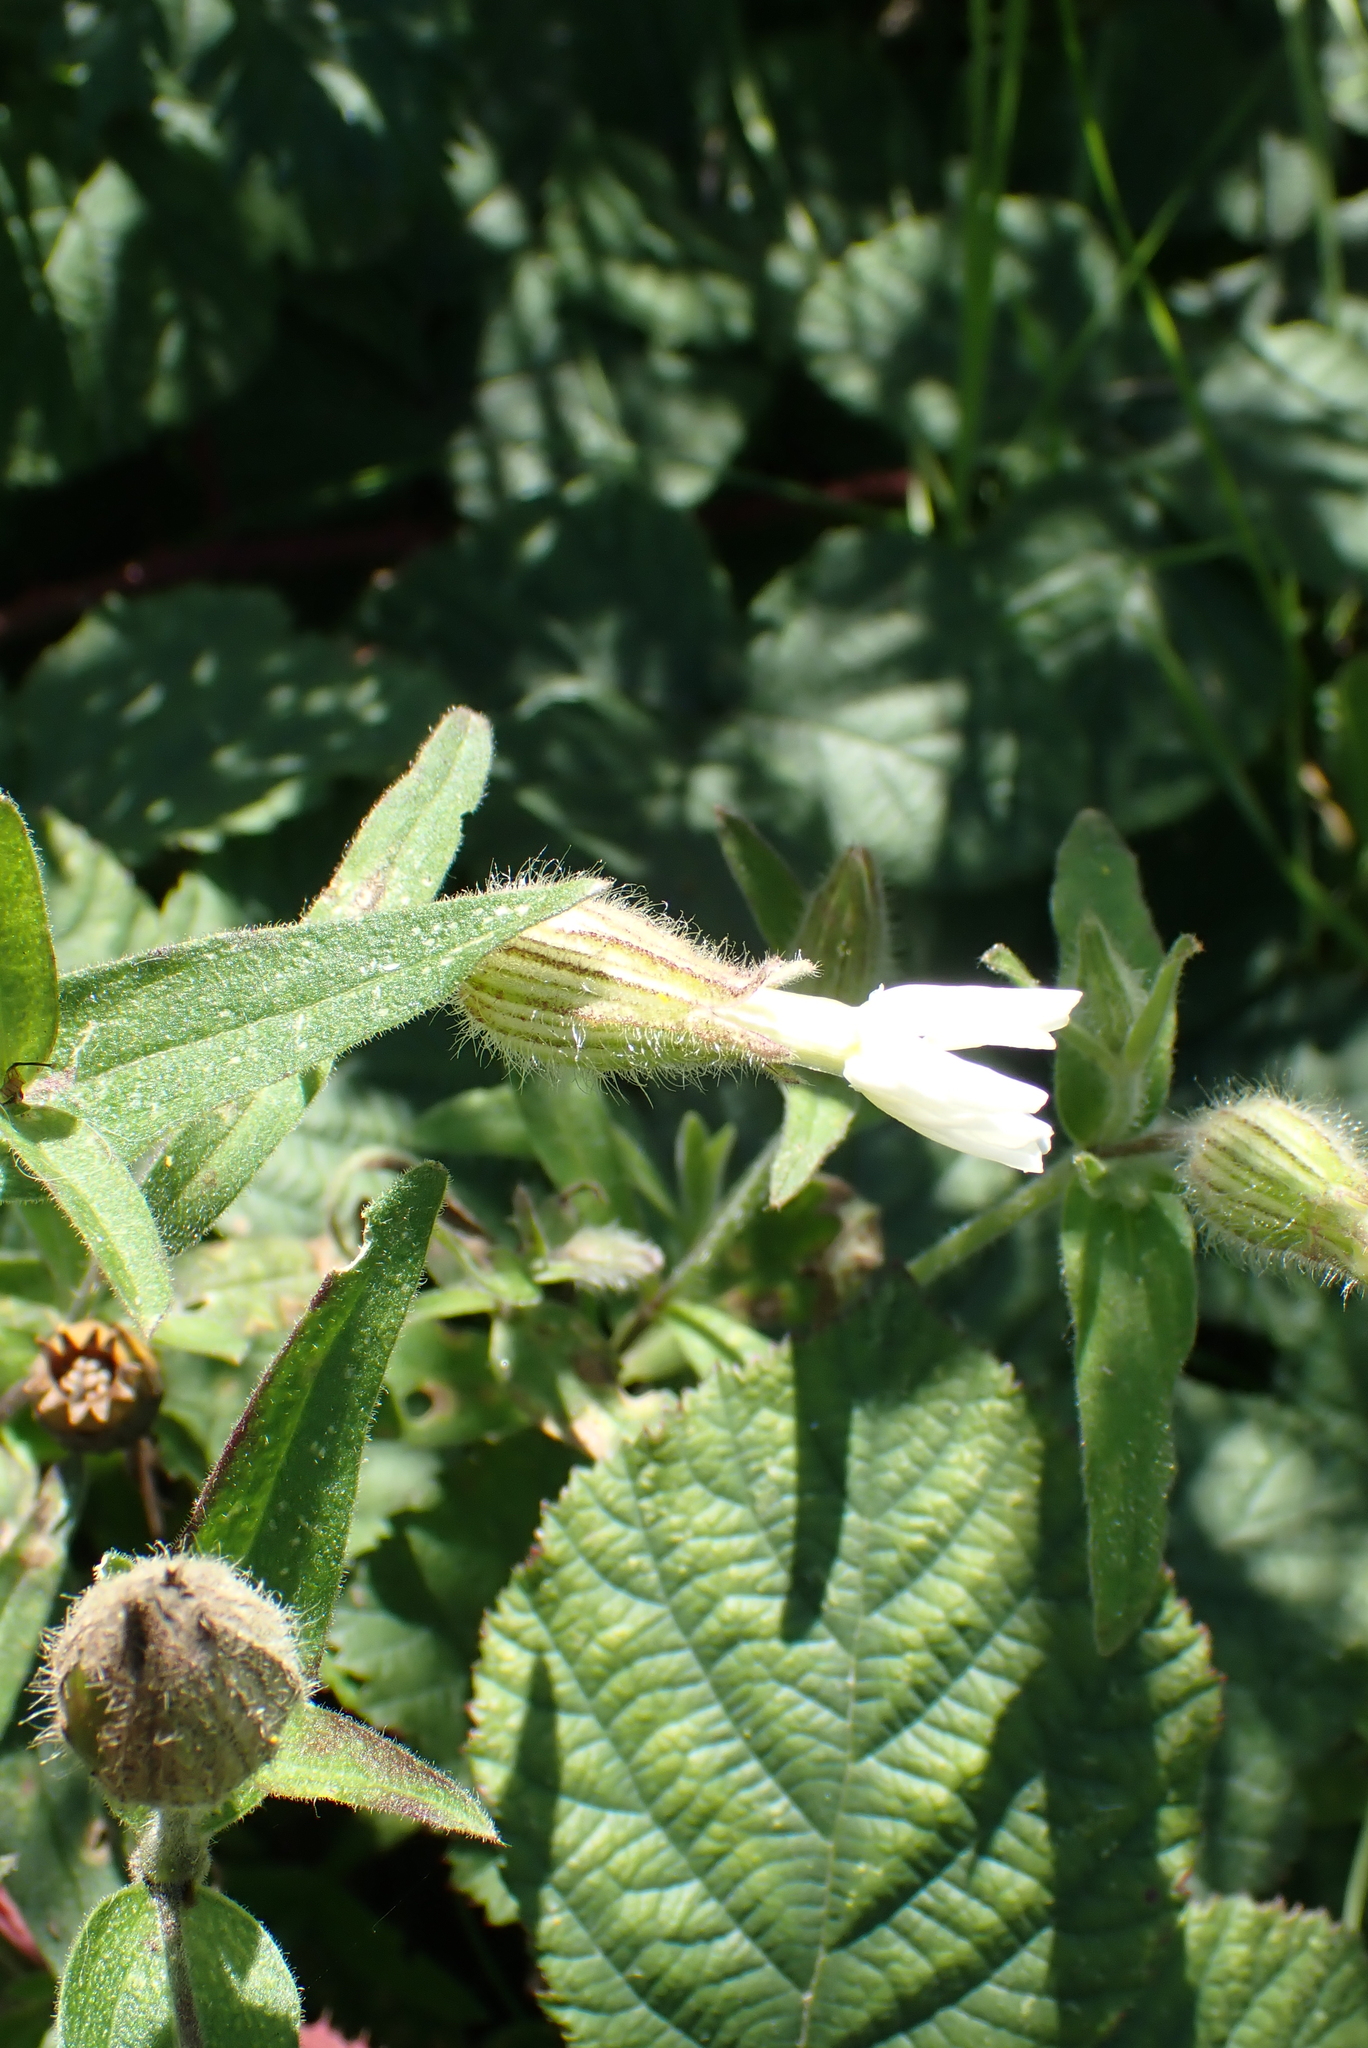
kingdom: Plantae
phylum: Tracheophyta
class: Magnoliopsida
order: Caryophyllales
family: Caryophyllaceae
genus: Silene
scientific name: Silene latifolia
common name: White campion
